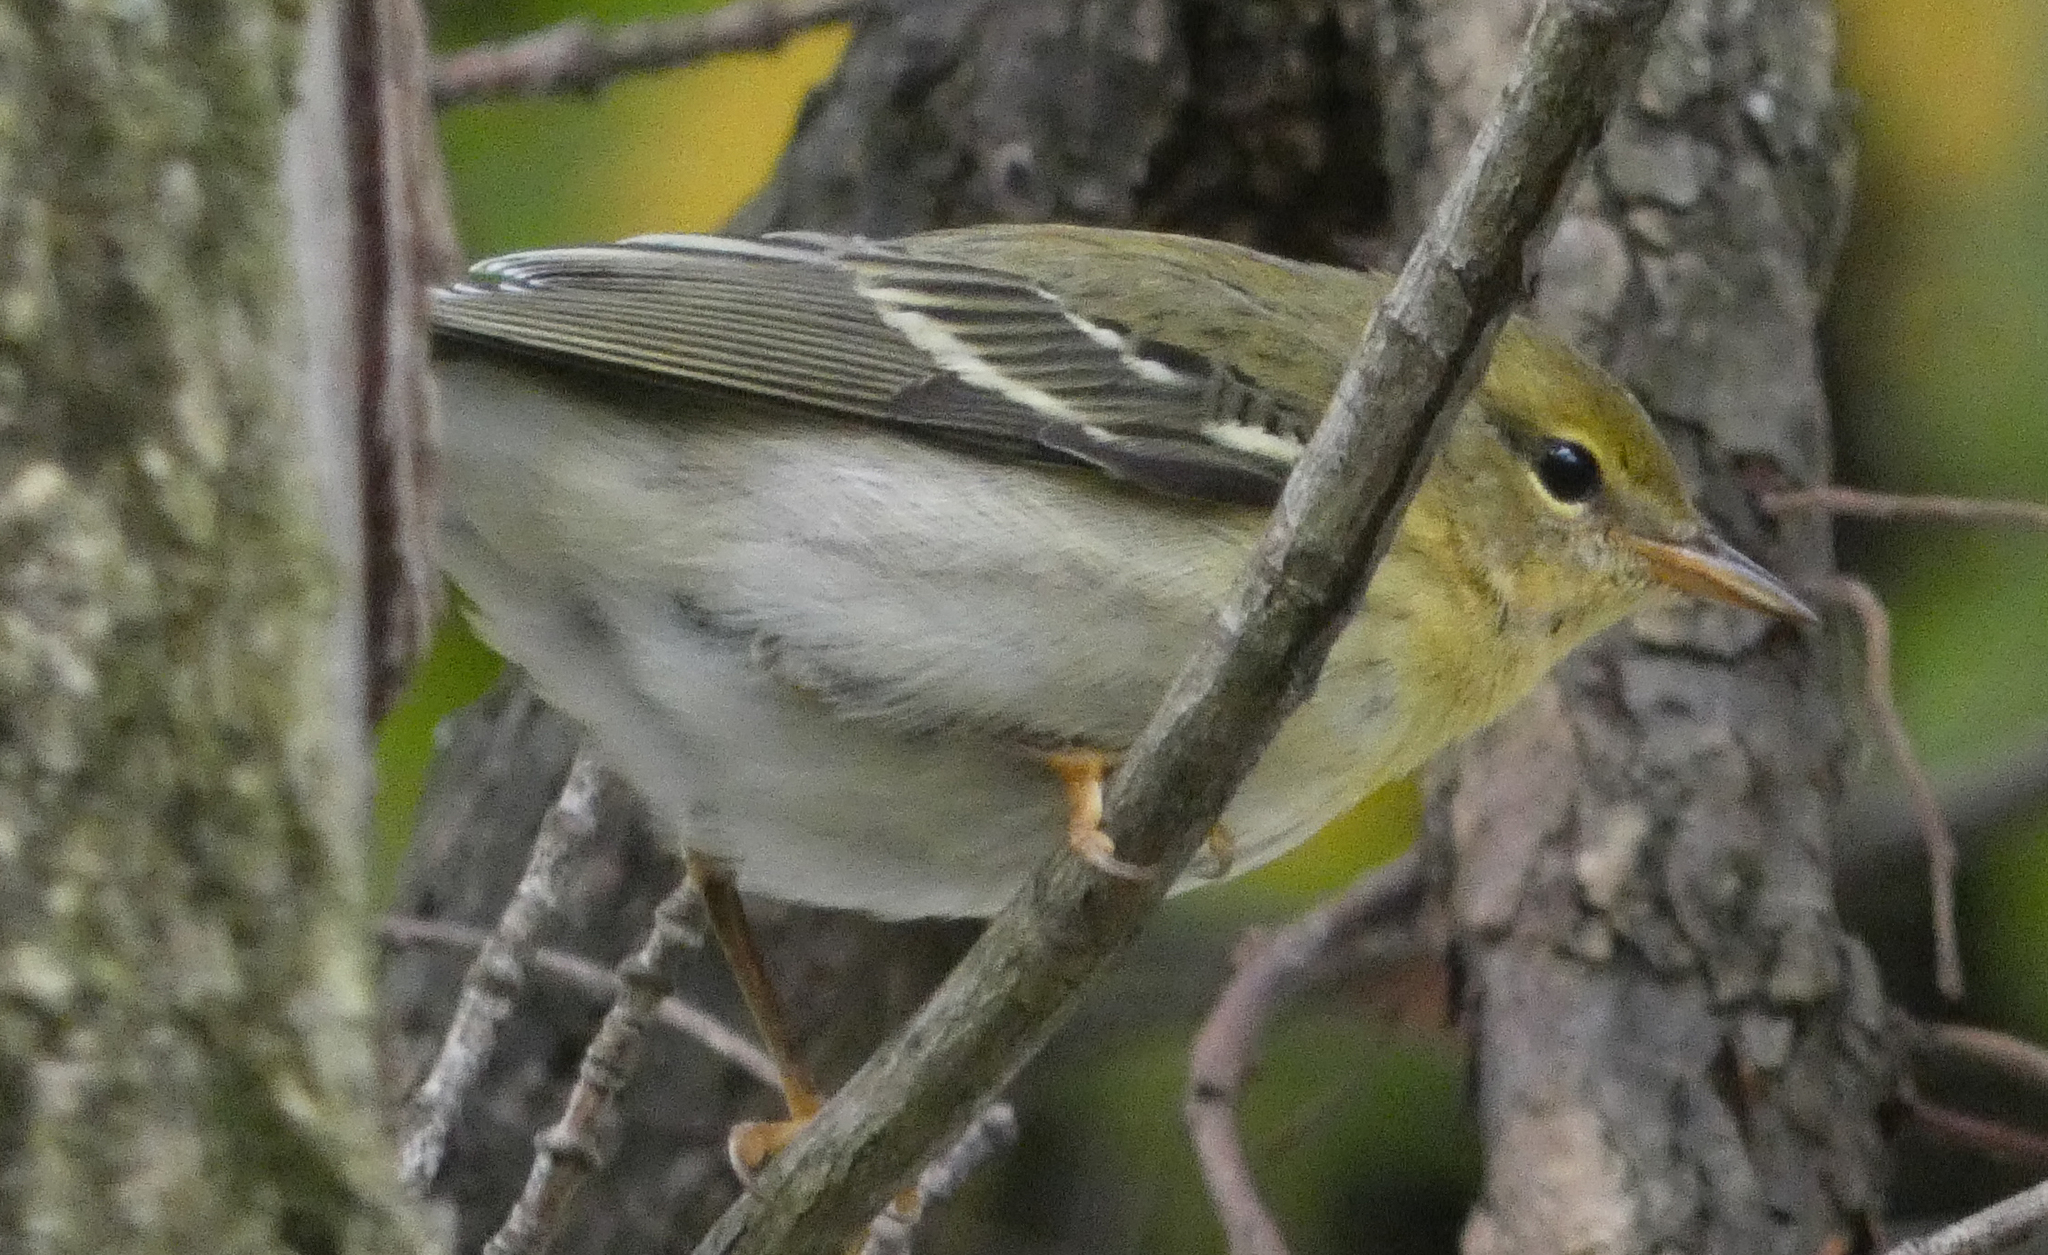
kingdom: Animalia
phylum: Chordata
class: Aves
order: Passeriformes
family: Parulidae
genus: Setophaga
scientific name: Setophaga striata
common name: Blackpoll warbler
